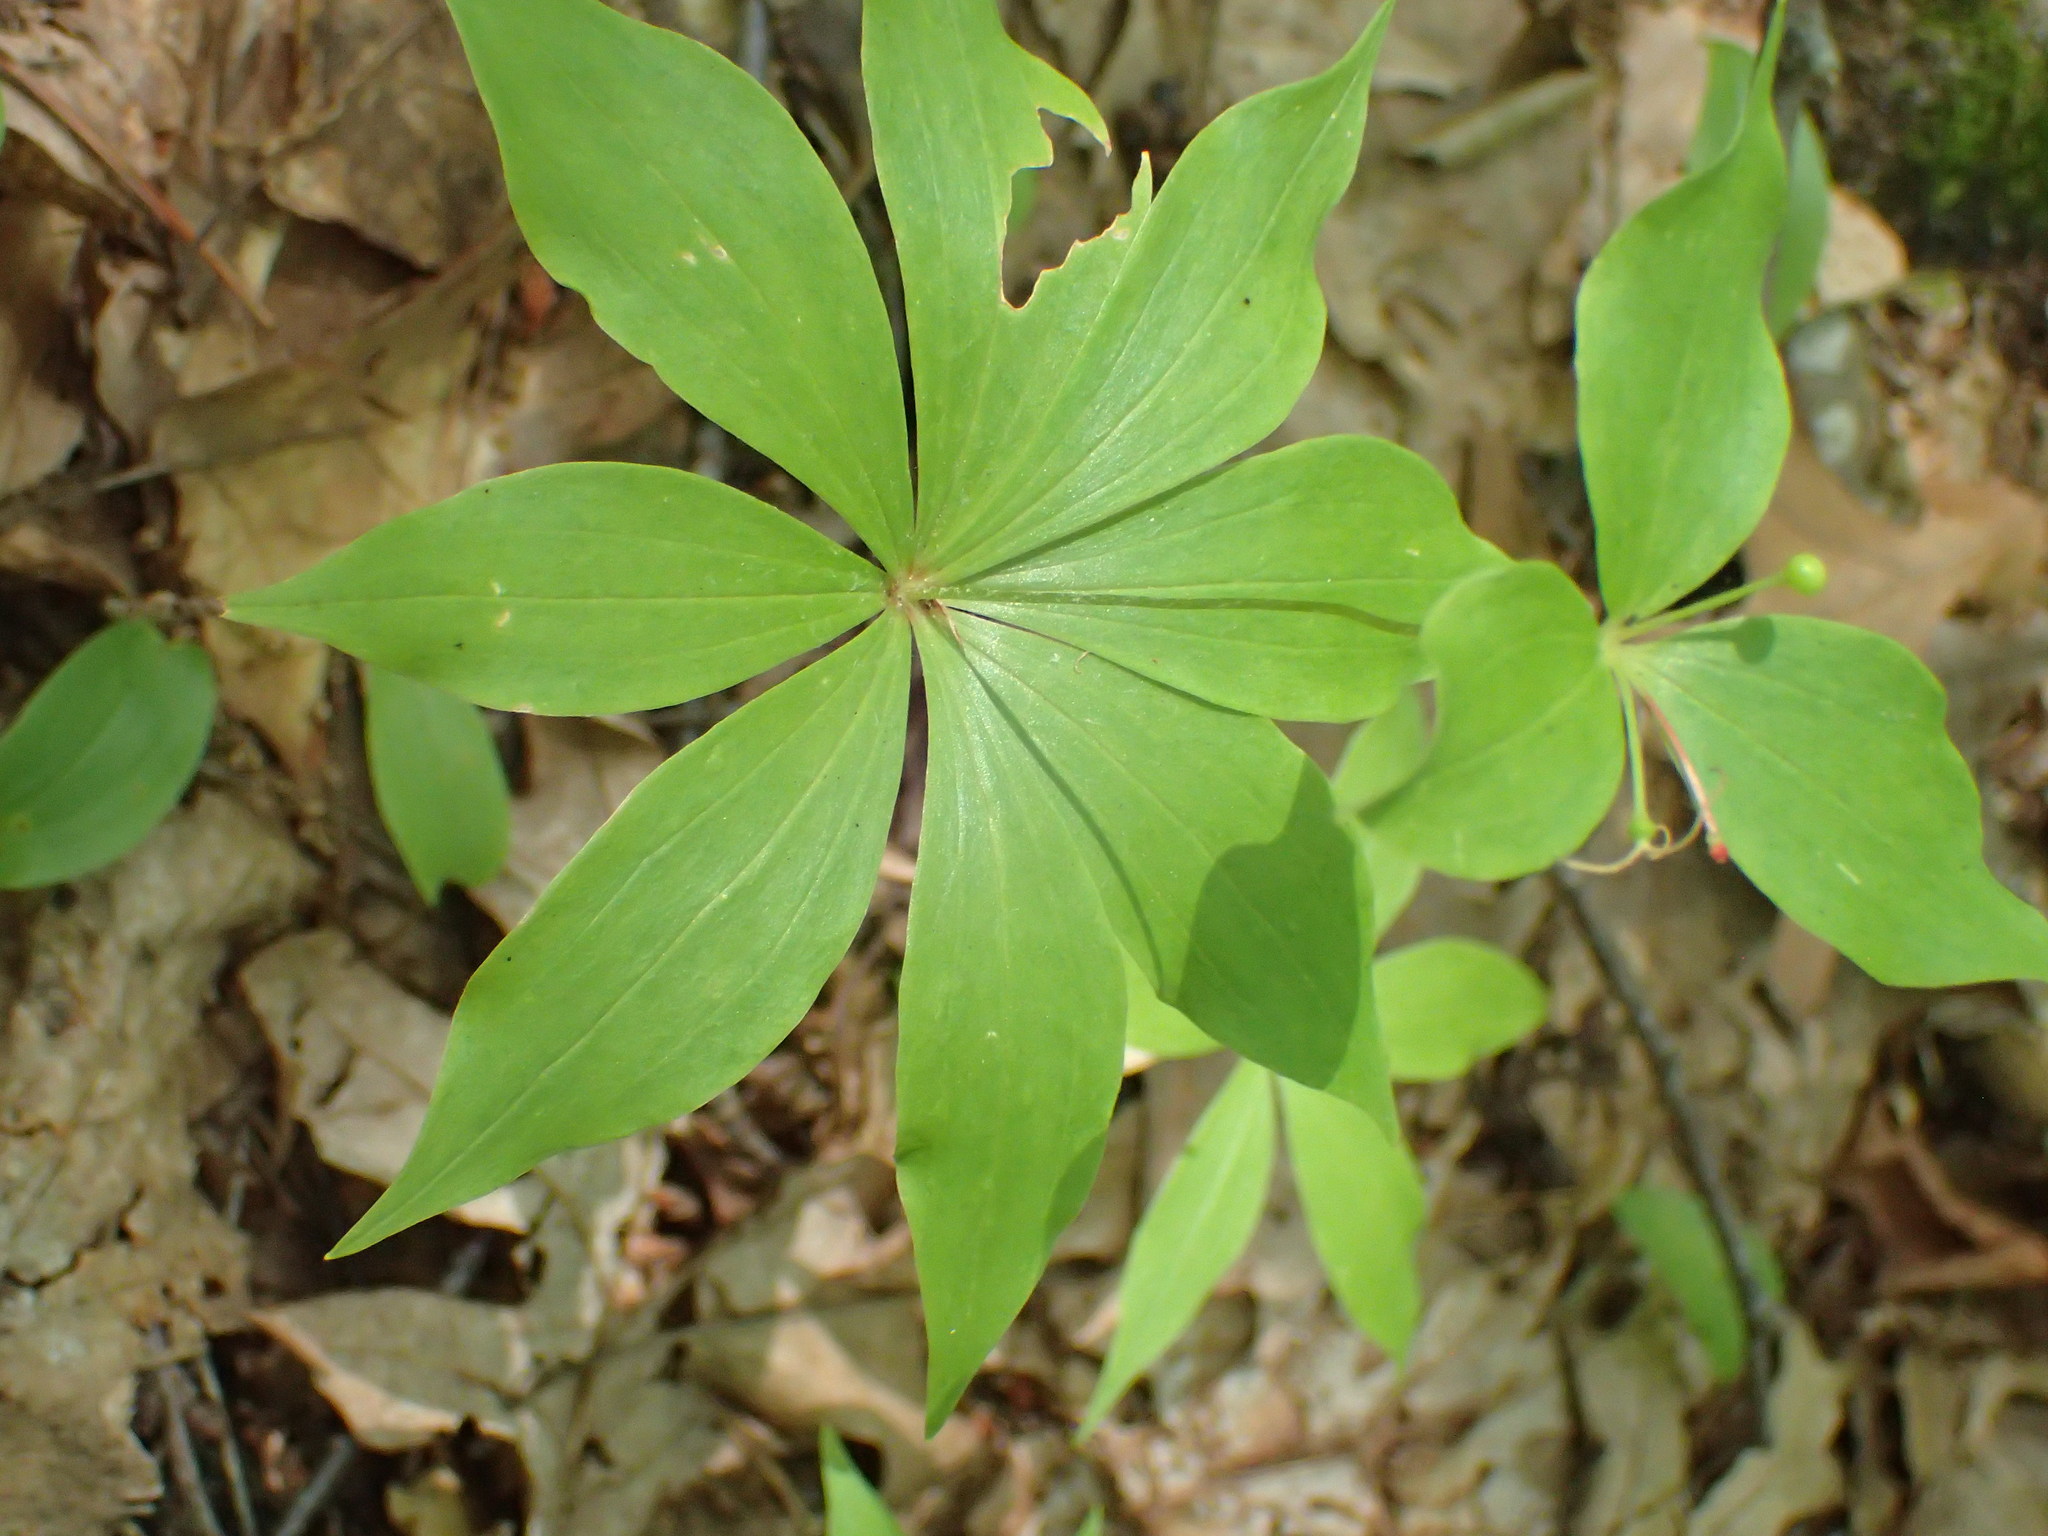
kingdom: Plantae
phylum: Tracheophyta
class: Liliopsida
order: Liliales
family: Liliaceae
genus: Medeola
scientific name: Medeola virginiana
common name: Indian cucumber-root
